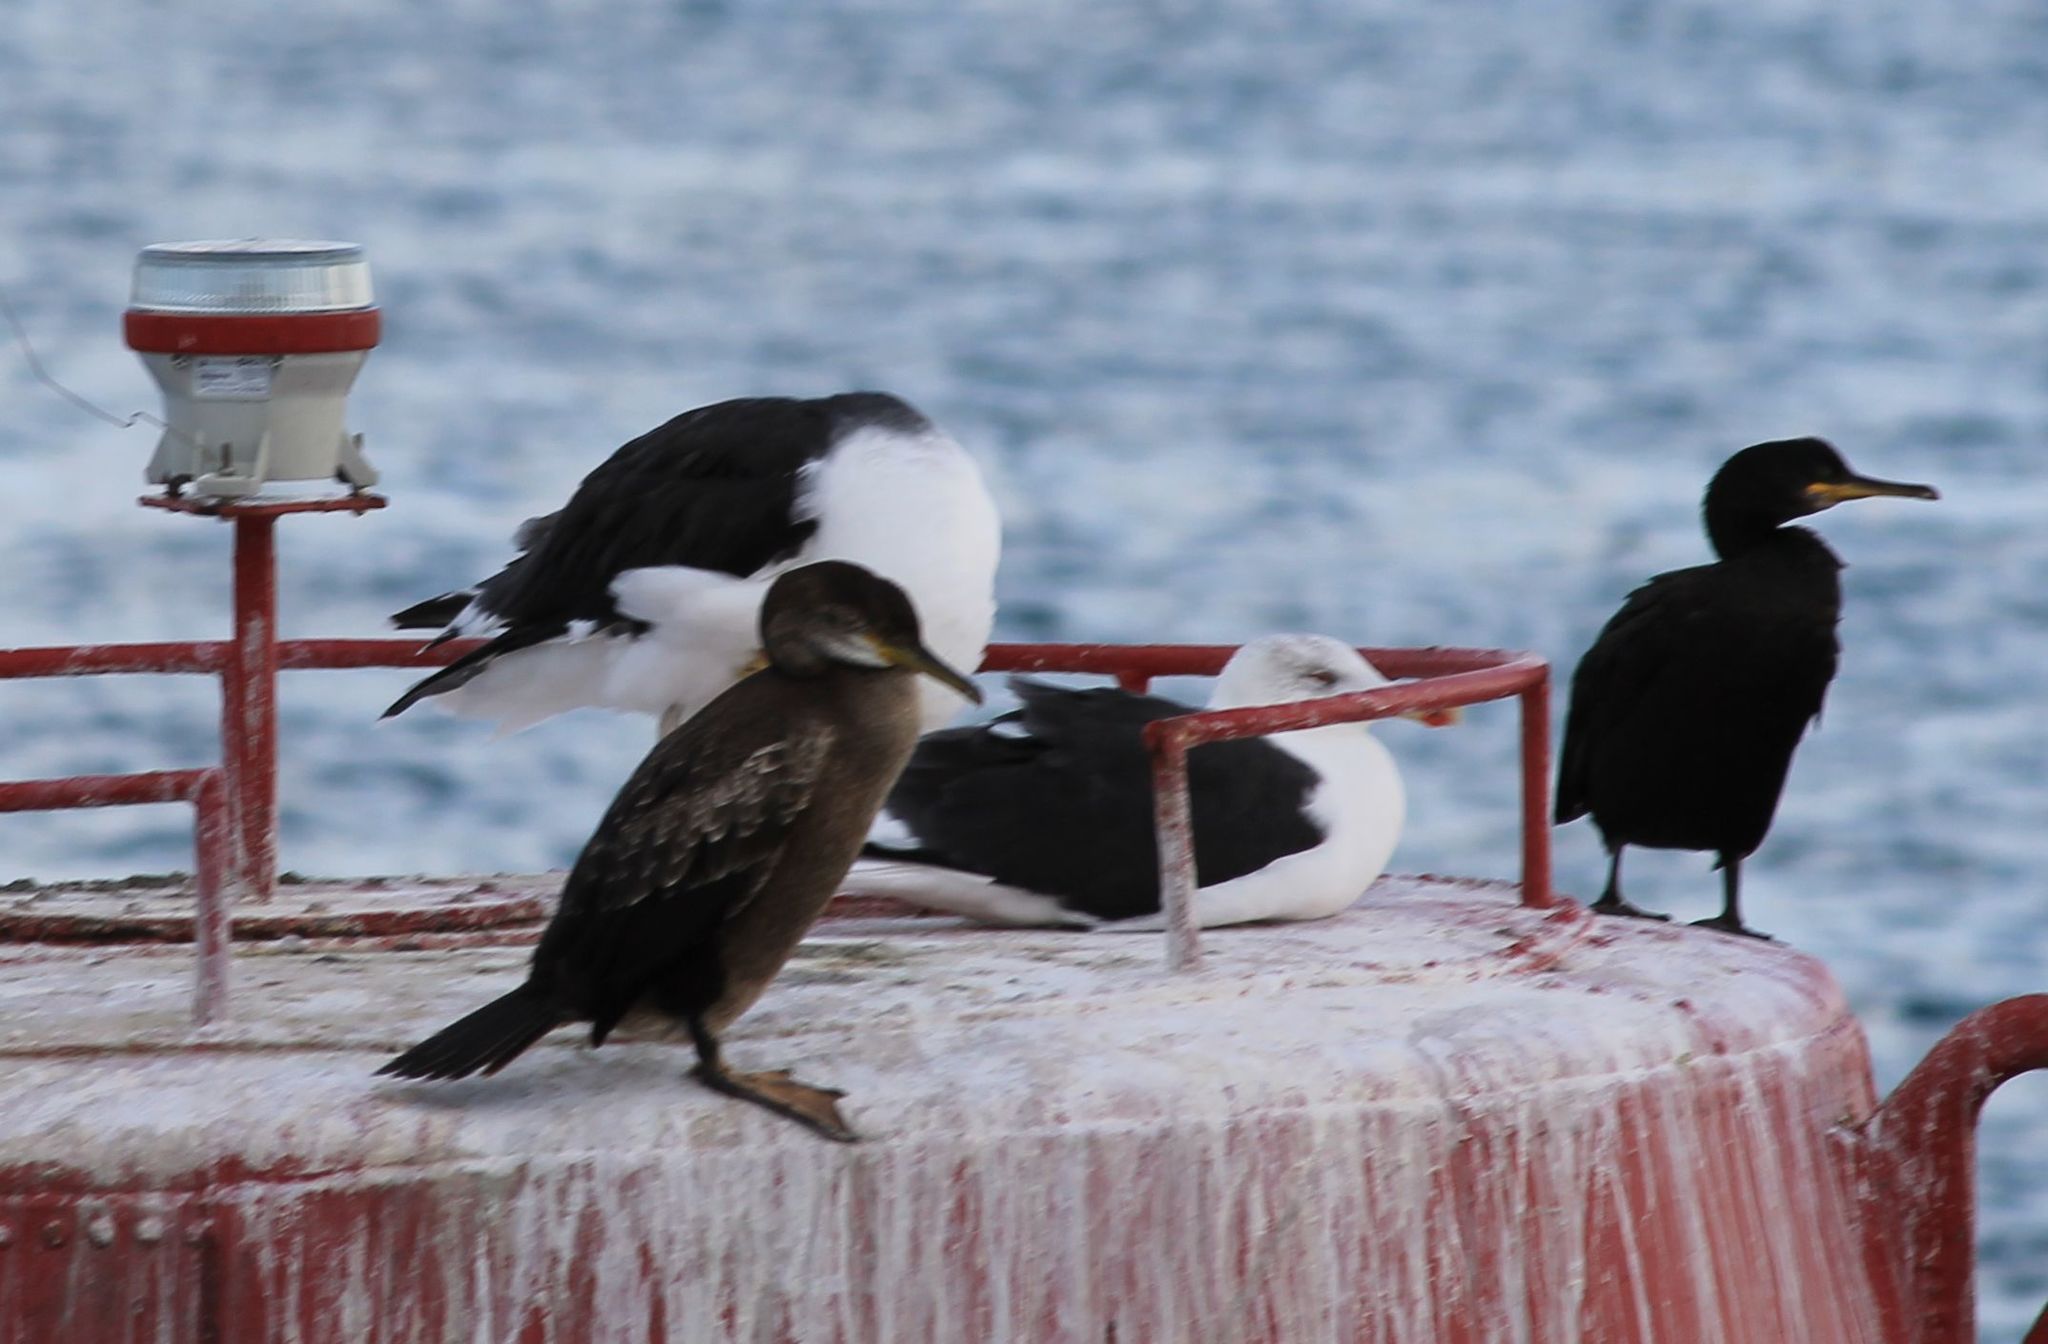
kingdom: Animalia
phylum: Chordata
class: Aves
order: Suliformes
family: Phalacrocoracidae
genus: Phalacrocorax
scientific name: Phalacrocorax aristotelis
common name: European shag
